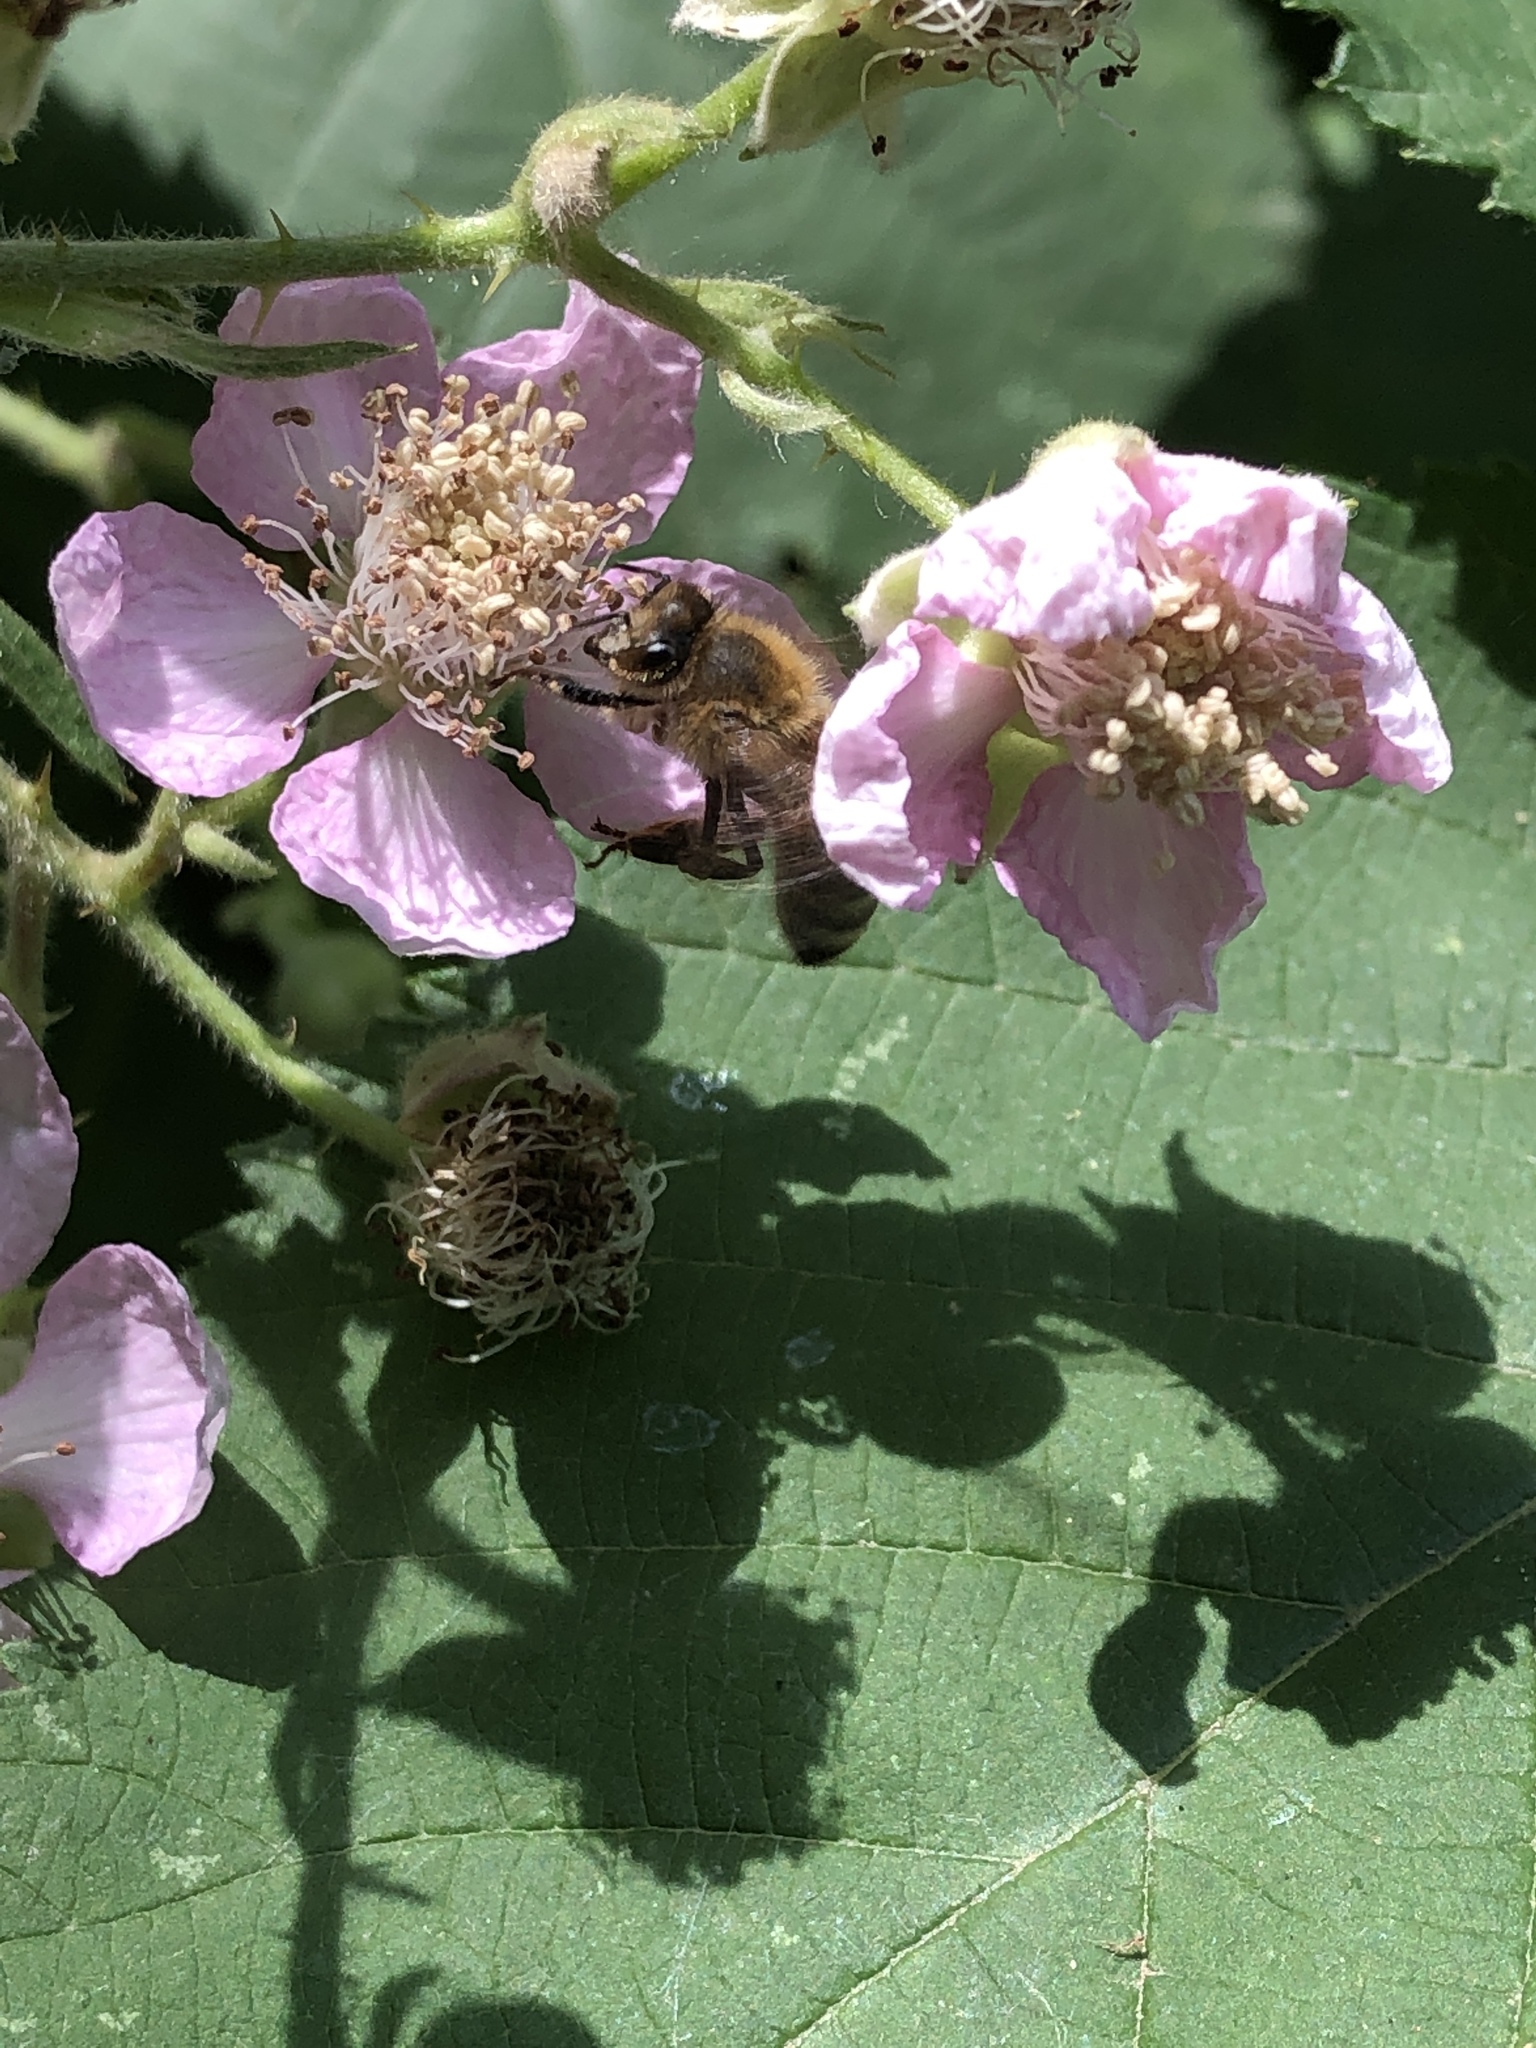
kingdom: Animalia
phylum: Arthropoda
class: Insecta
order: Hymenoptera
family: Apidae
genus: Apis
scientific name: Apis mellifera
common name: Honey bee
